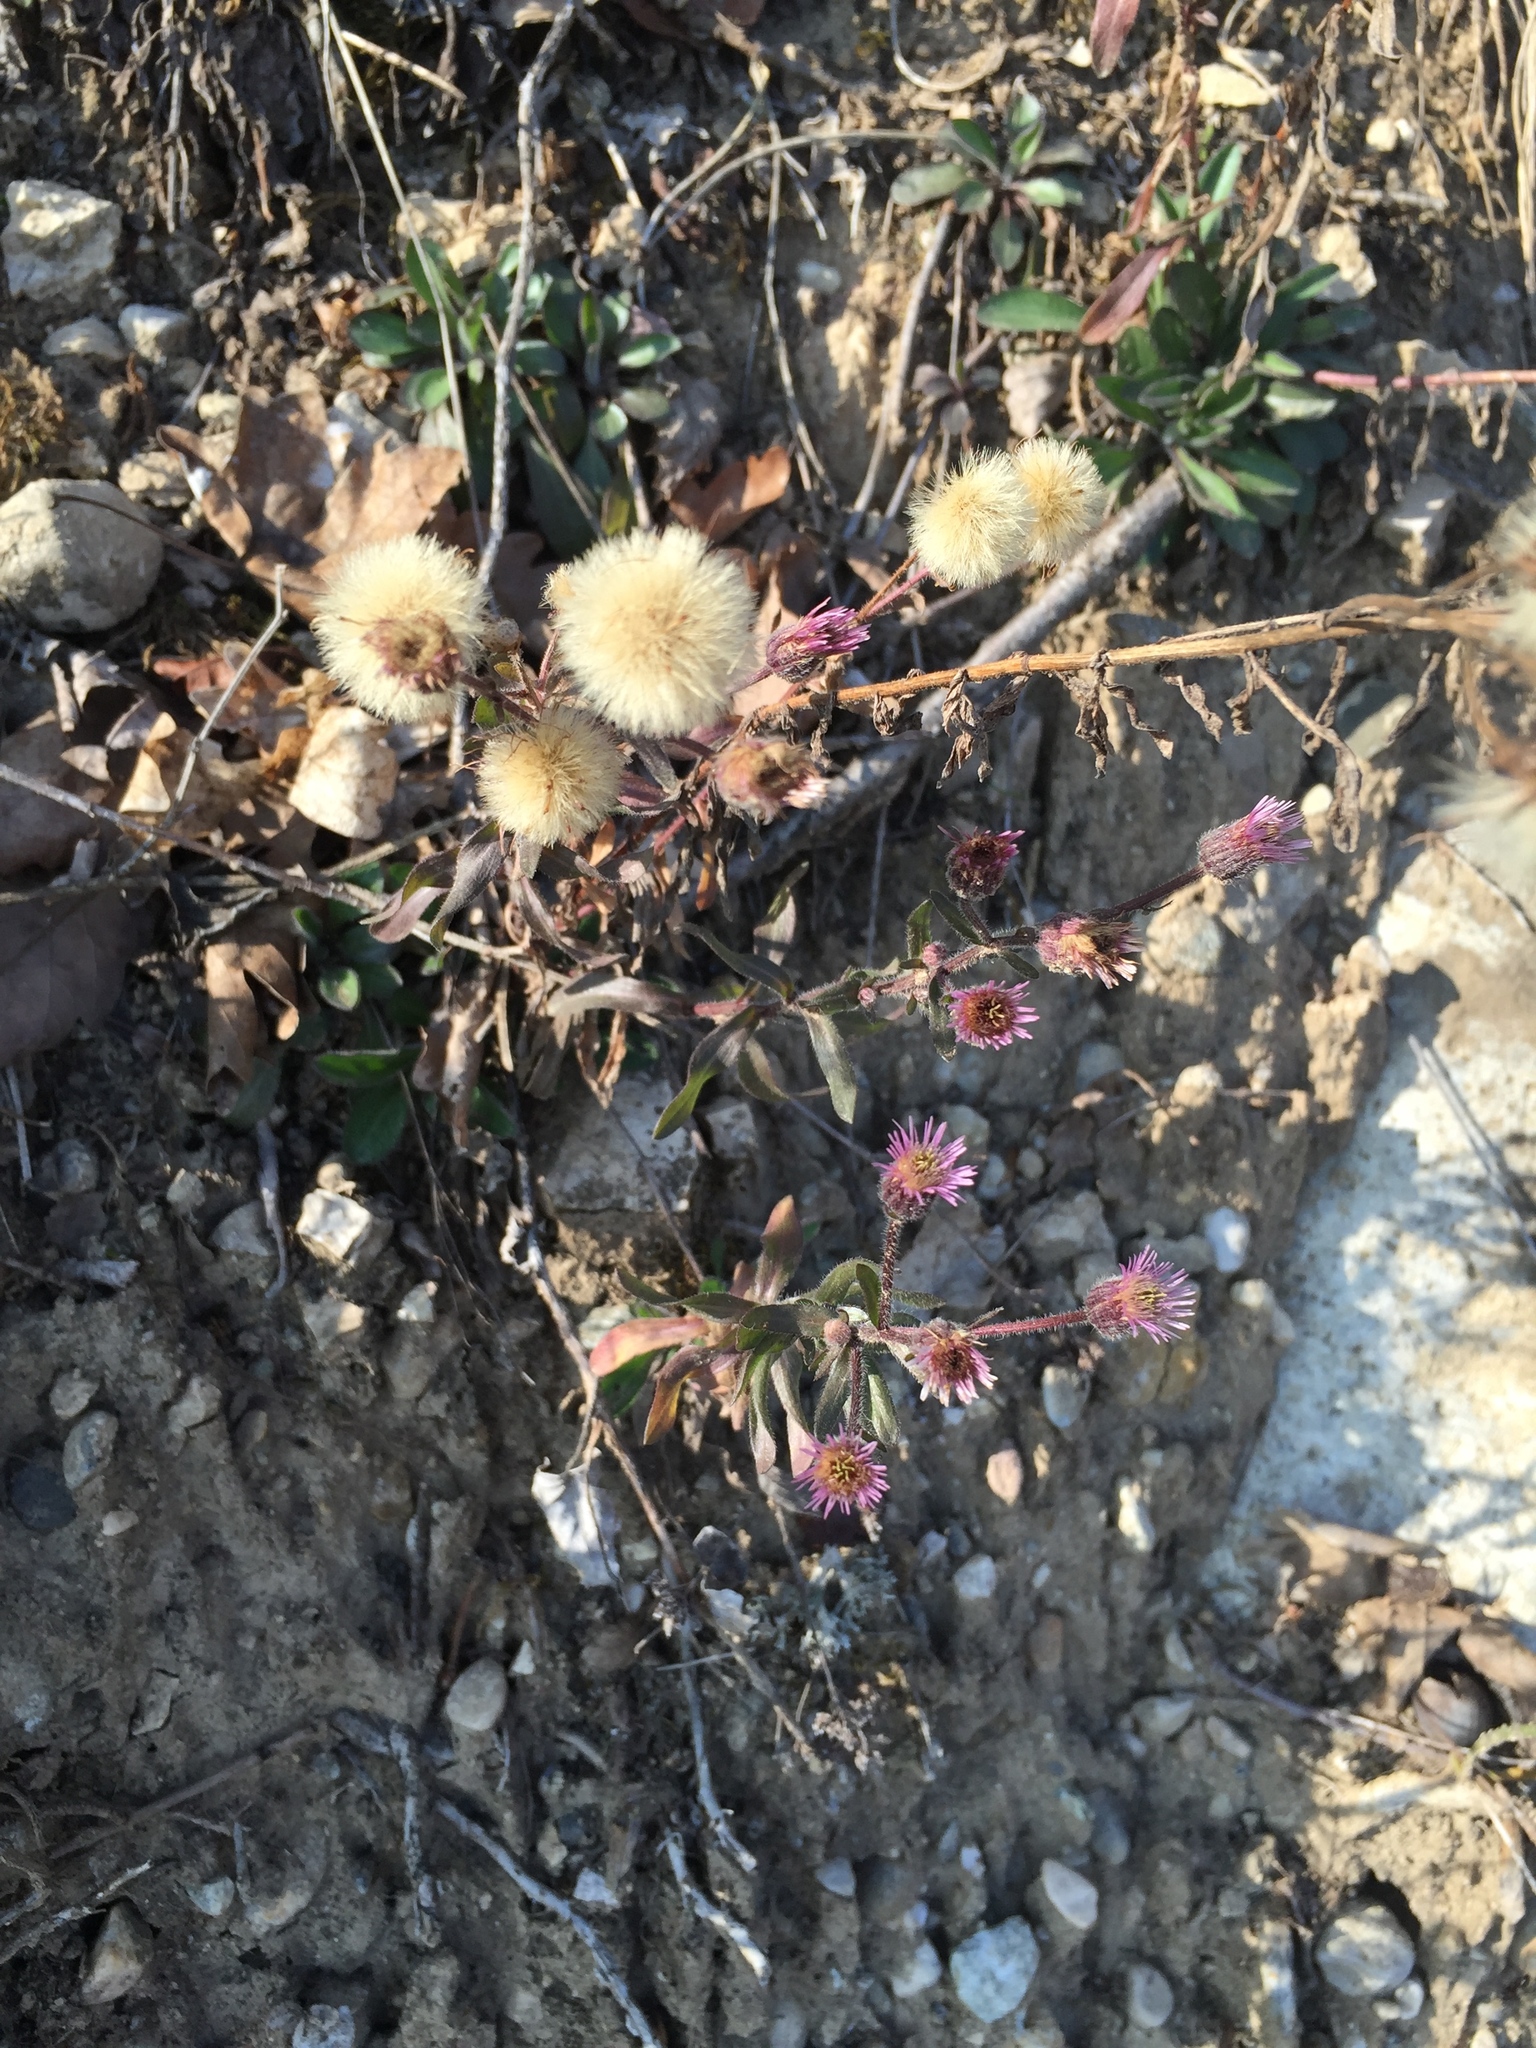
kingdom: Plantae
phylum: Tracheophyta
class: Magnoliopsida
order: Asterales
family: Asteraceae
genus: Erigeron
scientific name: Erigeron acris
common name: Blue fleabane
